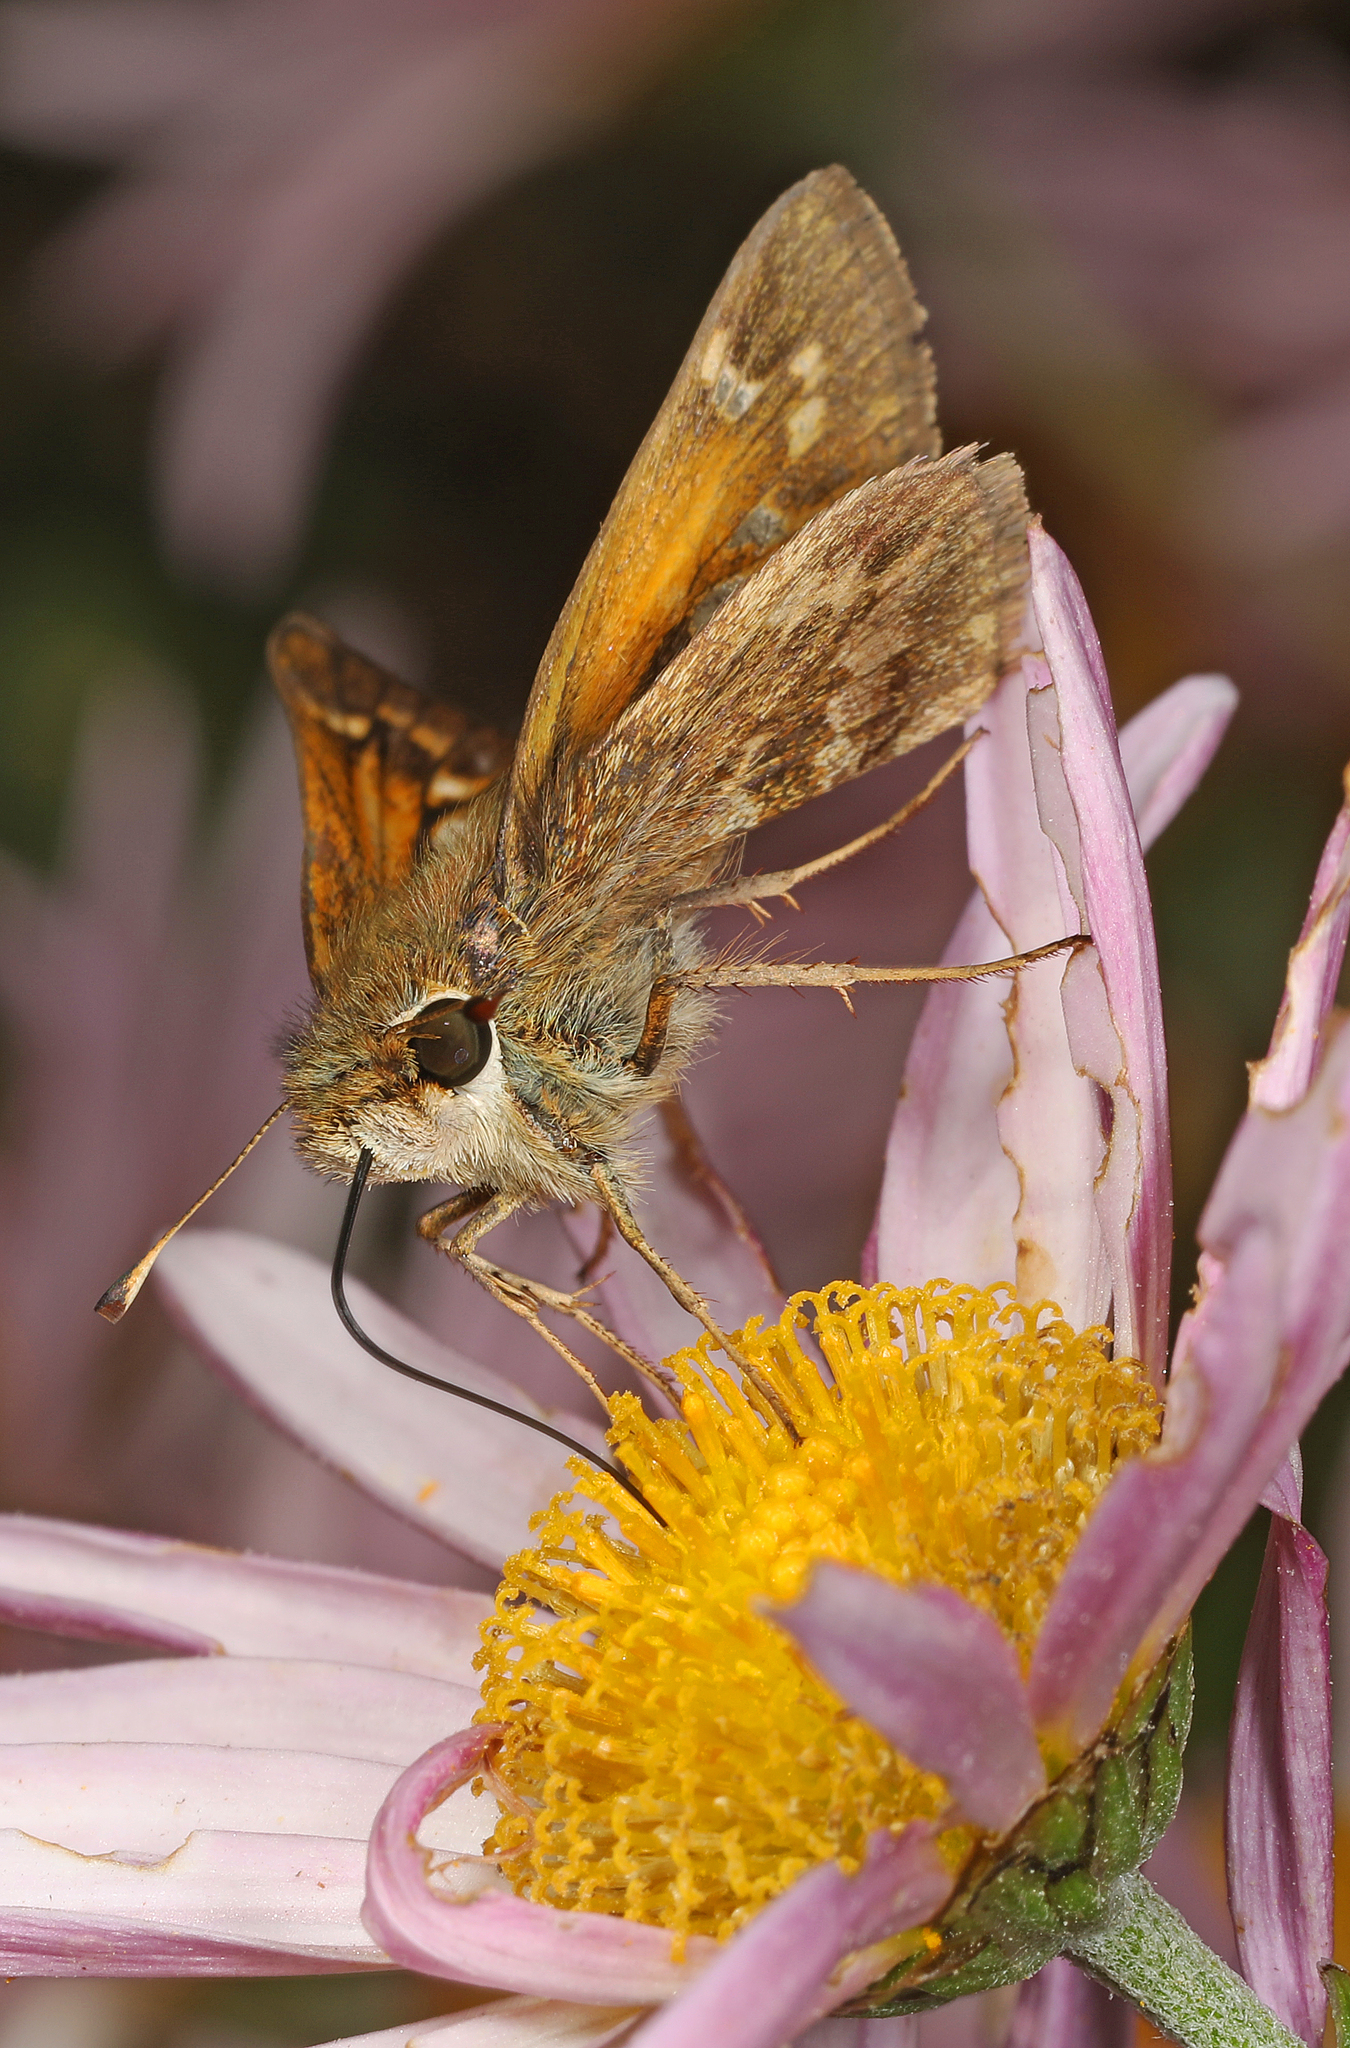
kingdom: Animalia
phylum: Arthropoda
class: Insecta
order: Lepidoptera
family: Hesperiidae
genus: Atalopedes
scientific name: Atalopedes
